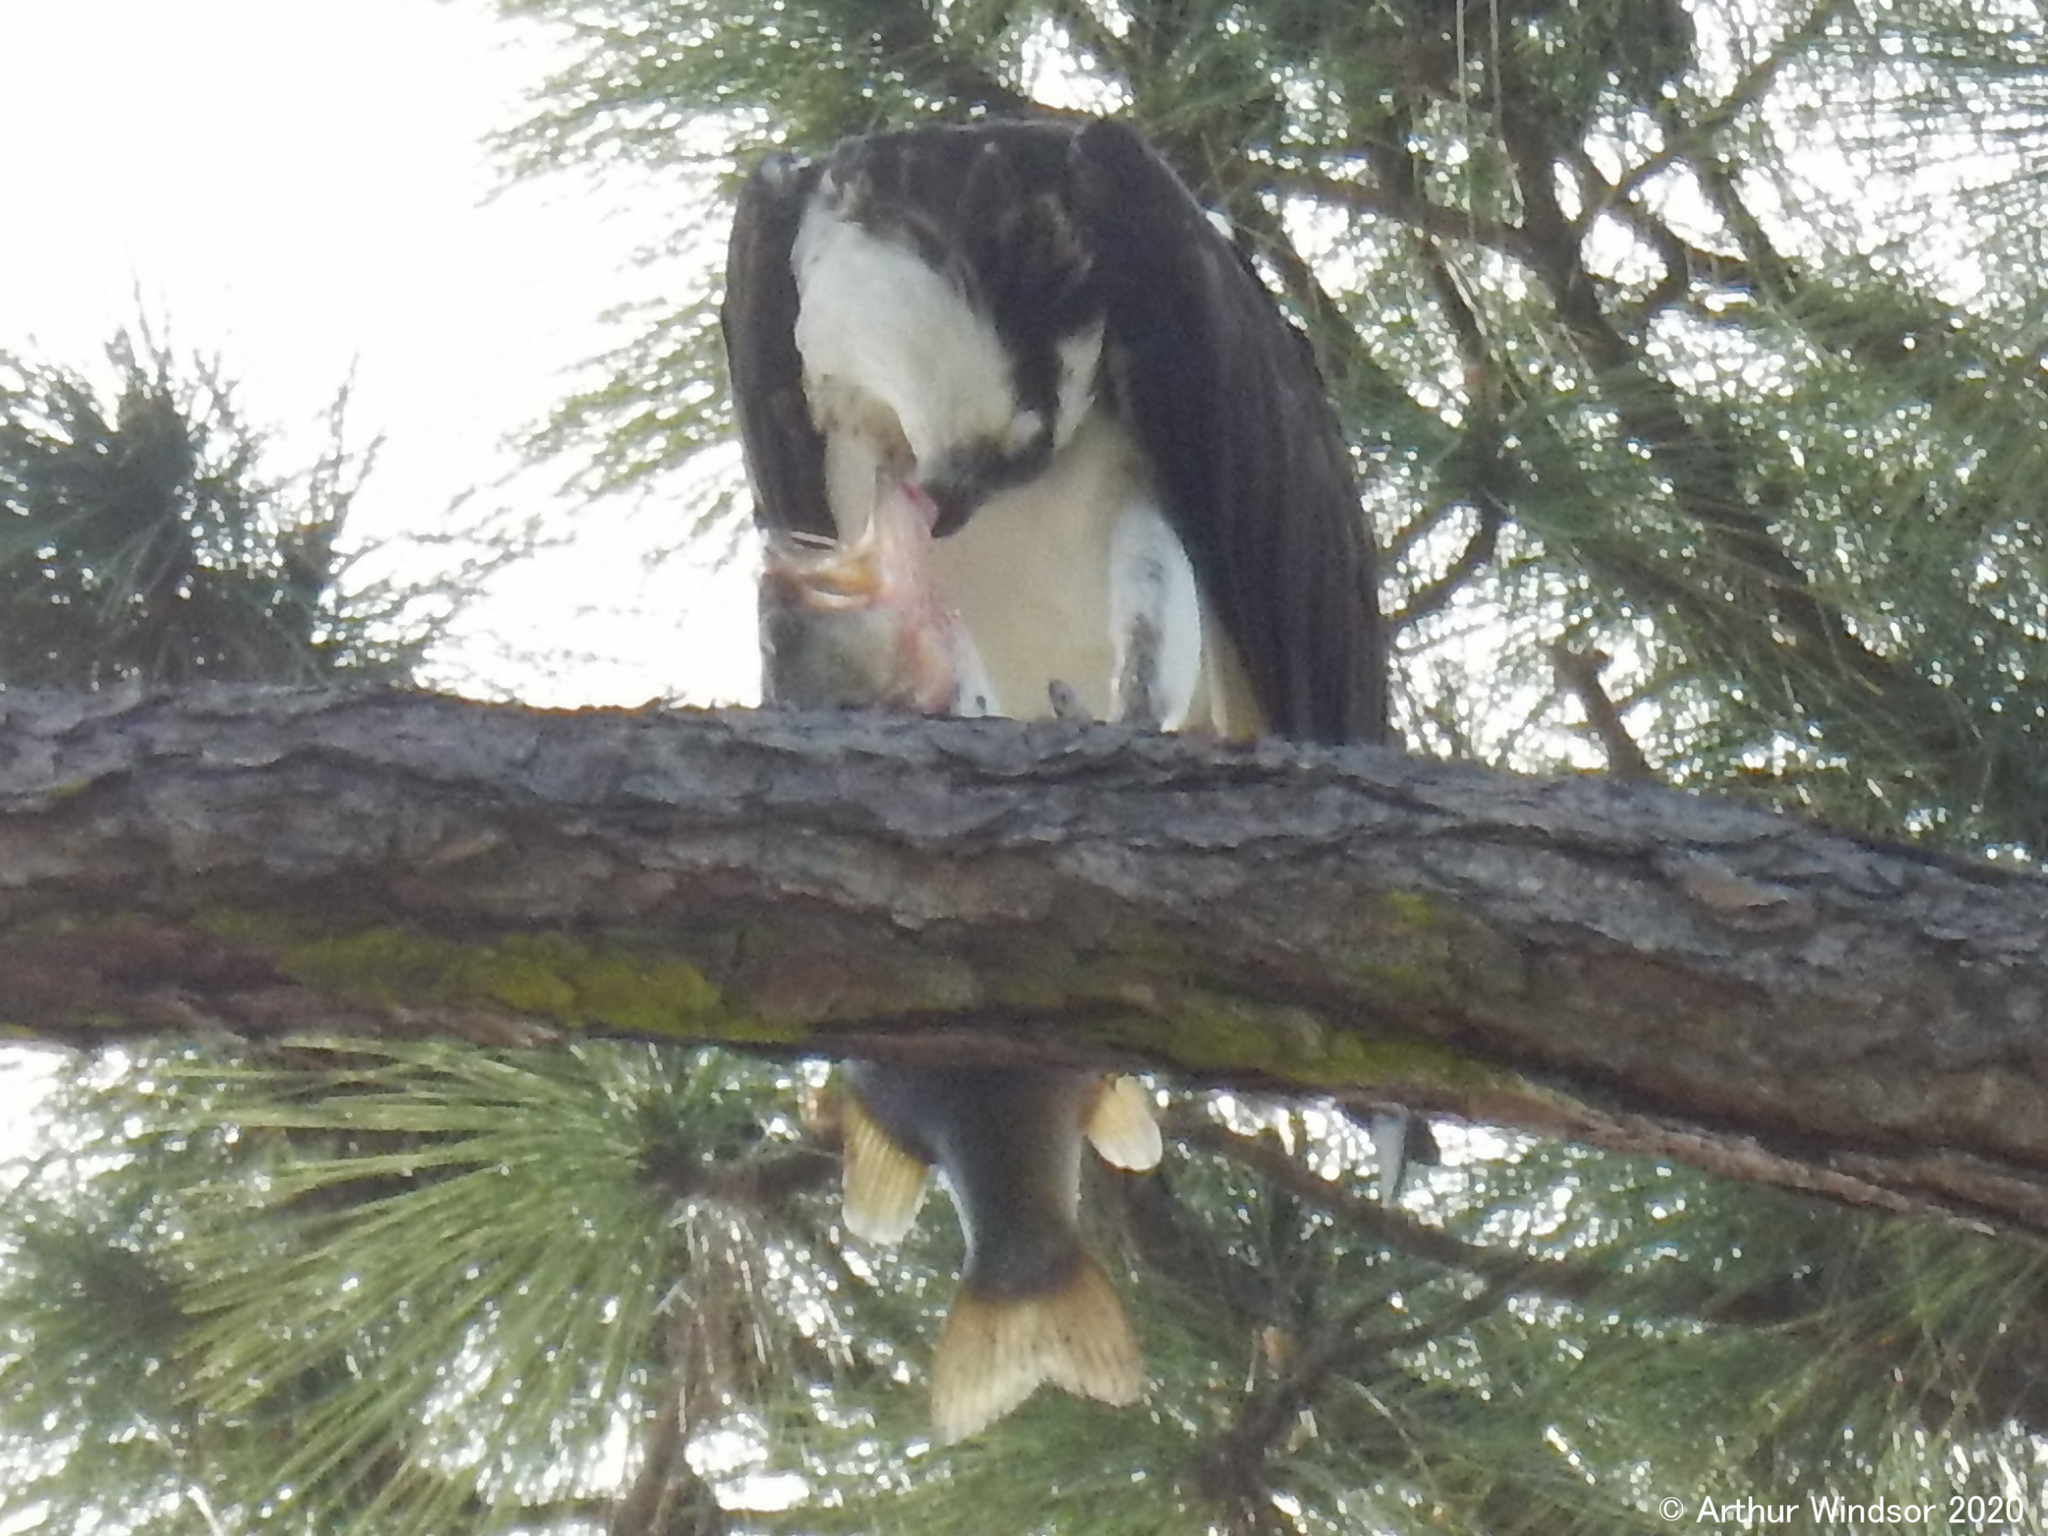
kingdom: Animalia
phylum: Chordata
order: Perciformes
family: Centrarchidae
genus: Micropterus
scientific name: Micropterus salmoides
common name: Largemouth bass
